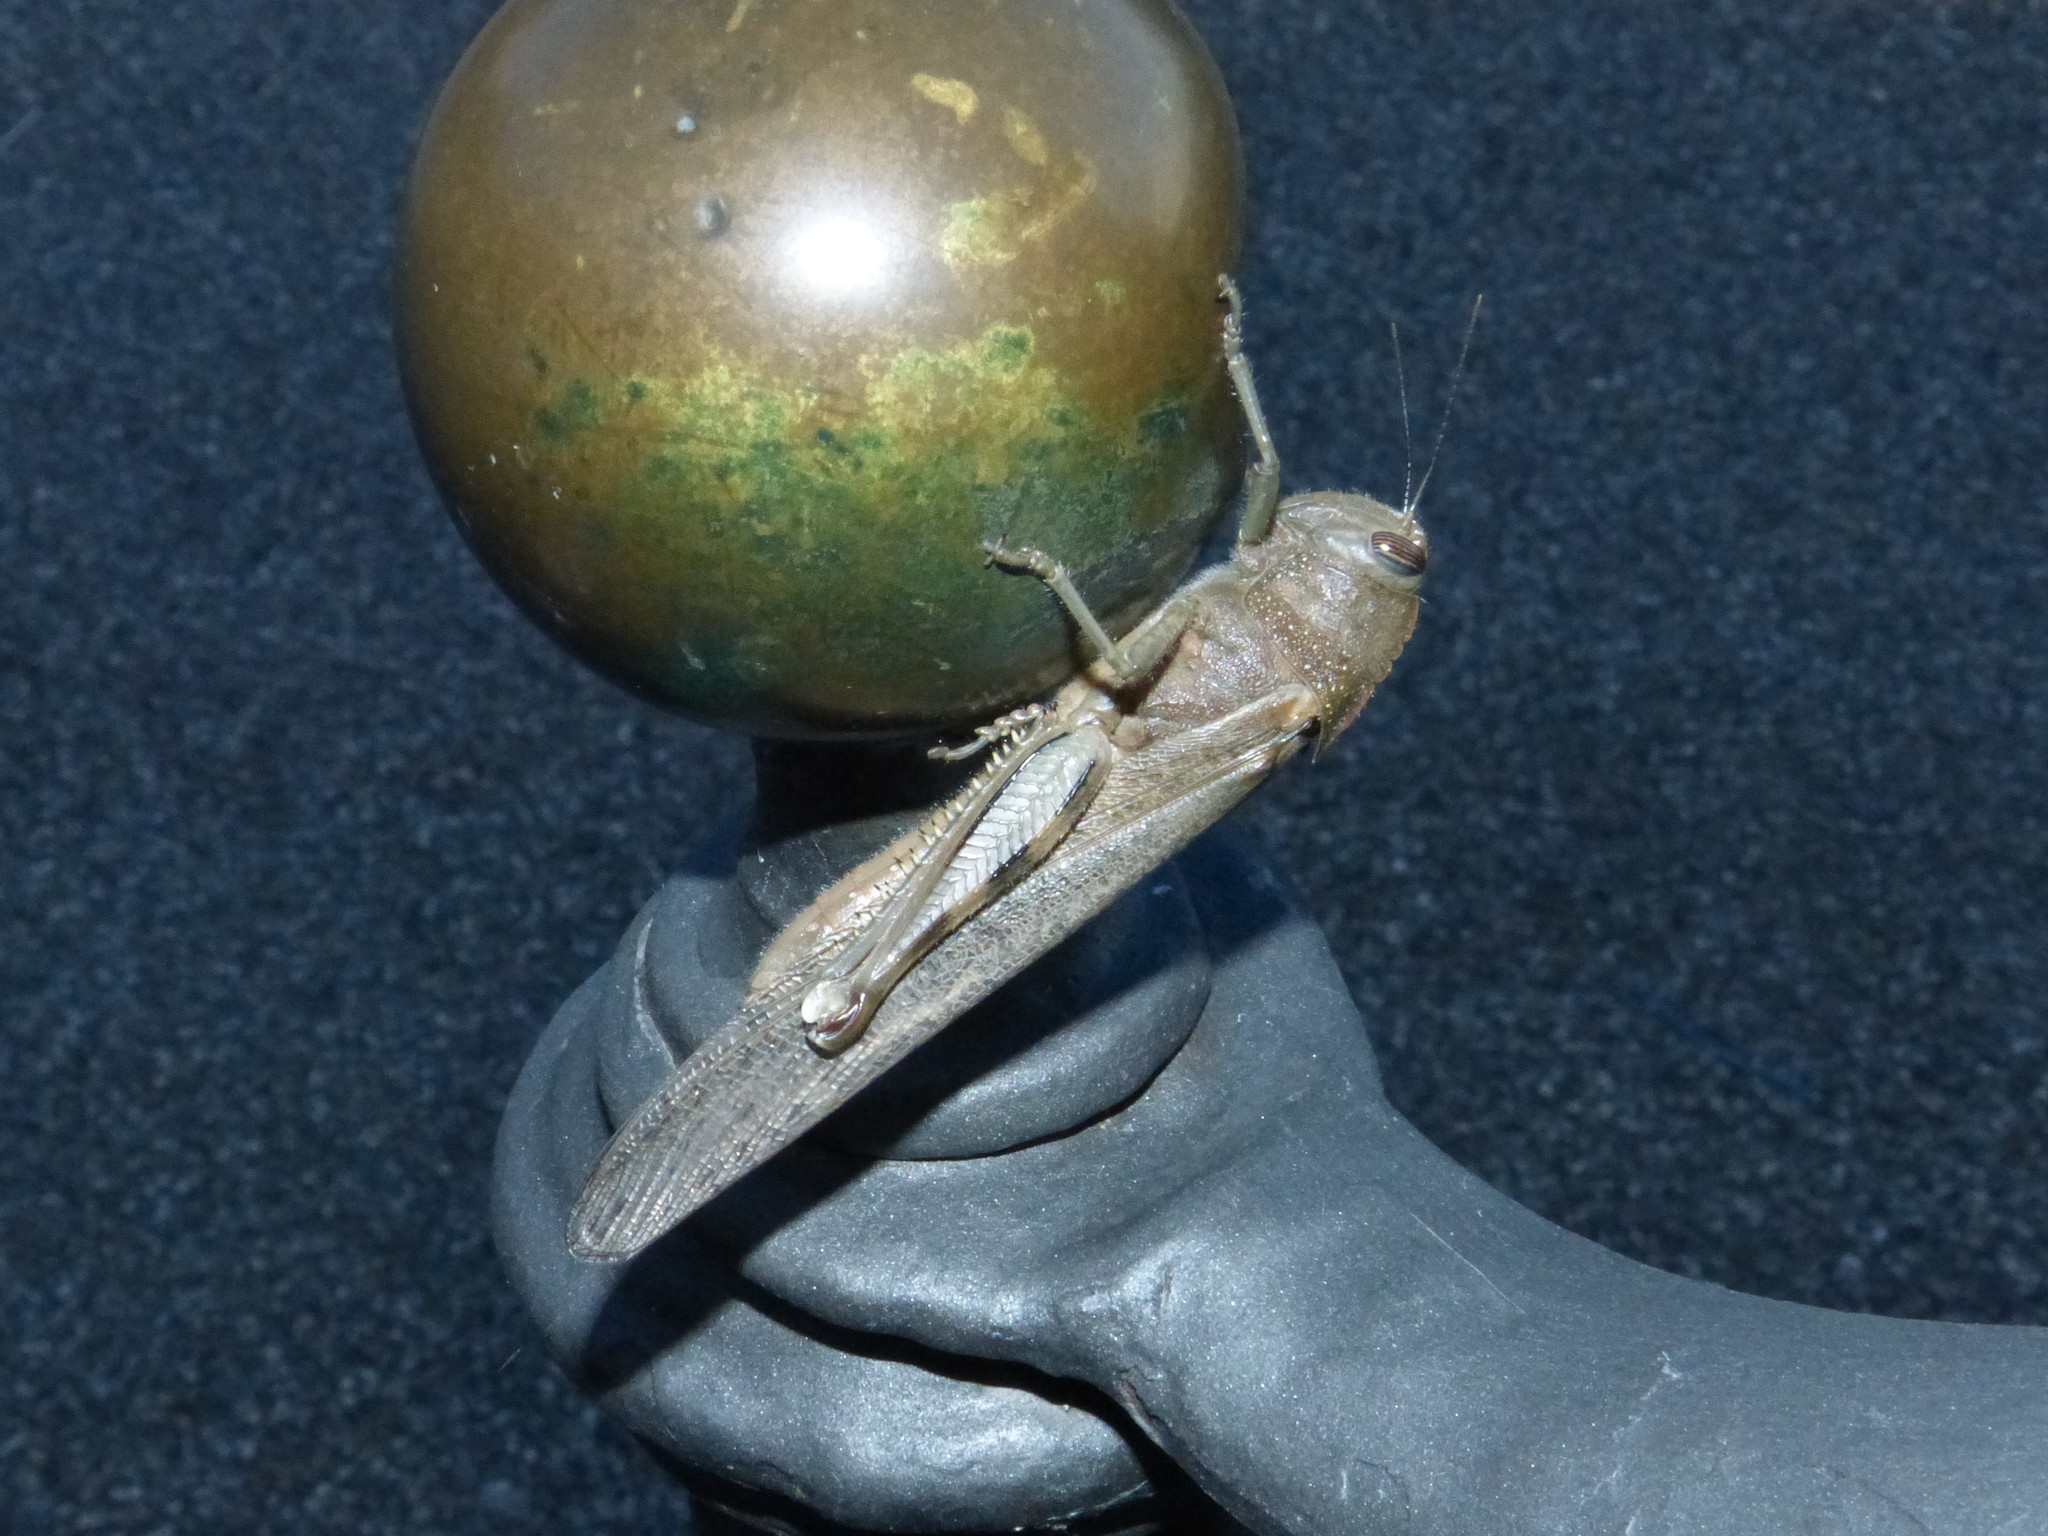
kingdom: Animalia
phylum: Arthropoda
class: Insecta
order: Orthoptera
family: Acrididae
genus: Anacridium
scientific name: Anacridium aegyptium
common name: Egyptian grasshopper
